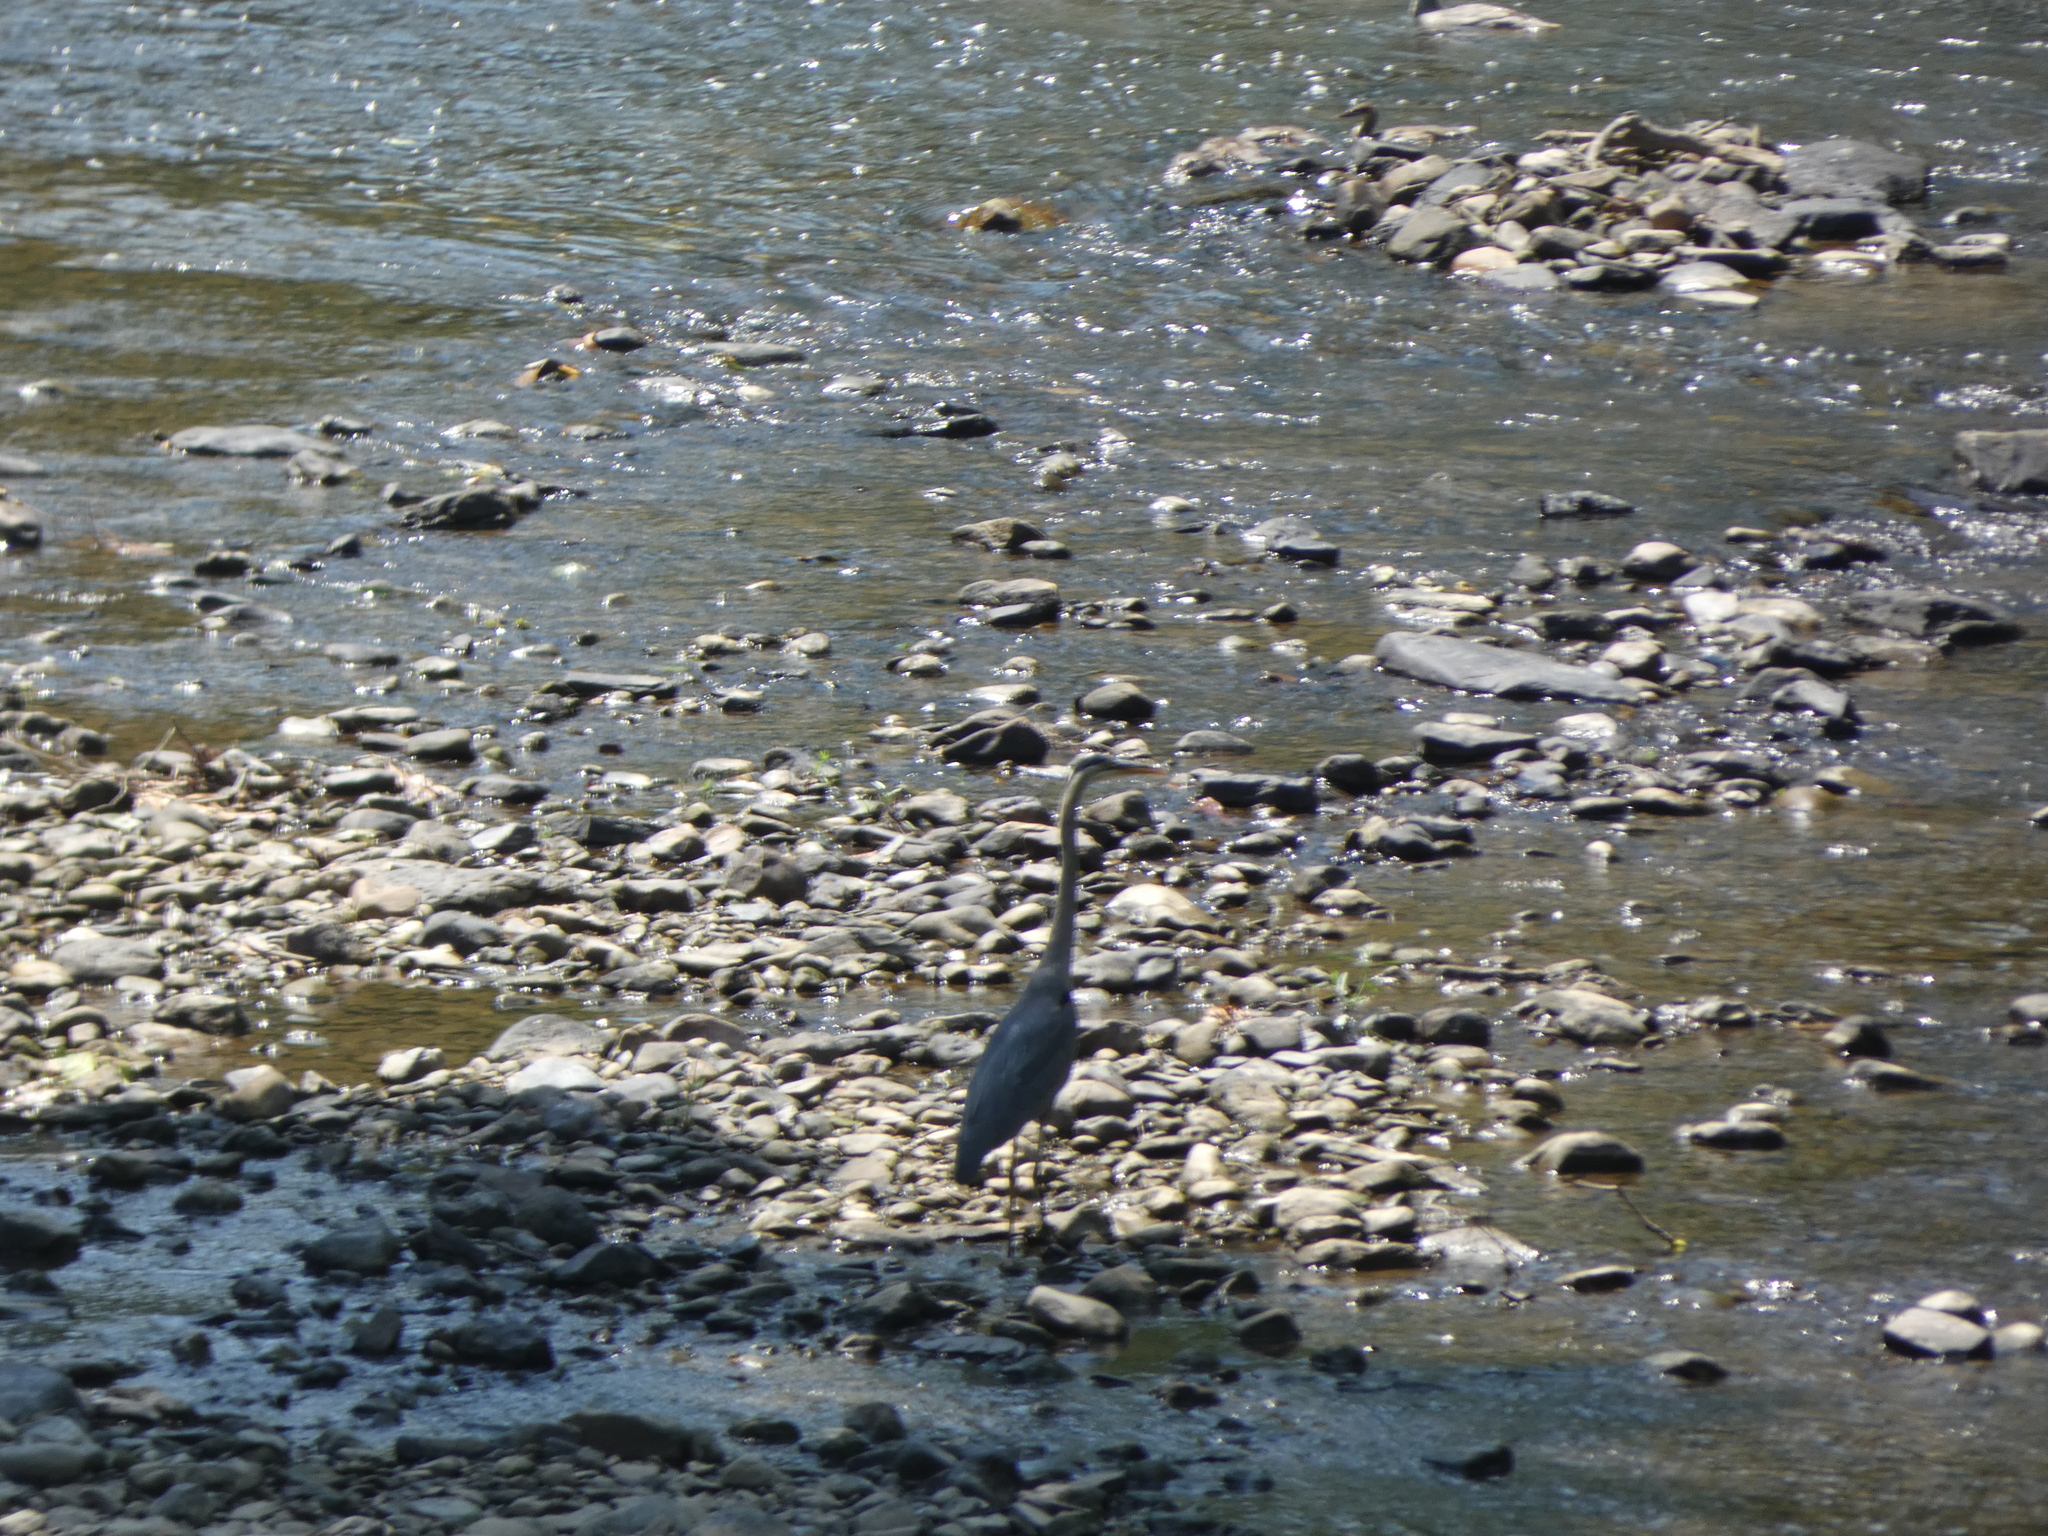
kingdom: Animalia
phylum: Chordata
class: Aves
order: Pelecaniformes
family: Ardeidae
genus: Ardea
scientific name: Ardea herodias
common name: Great blue heron
